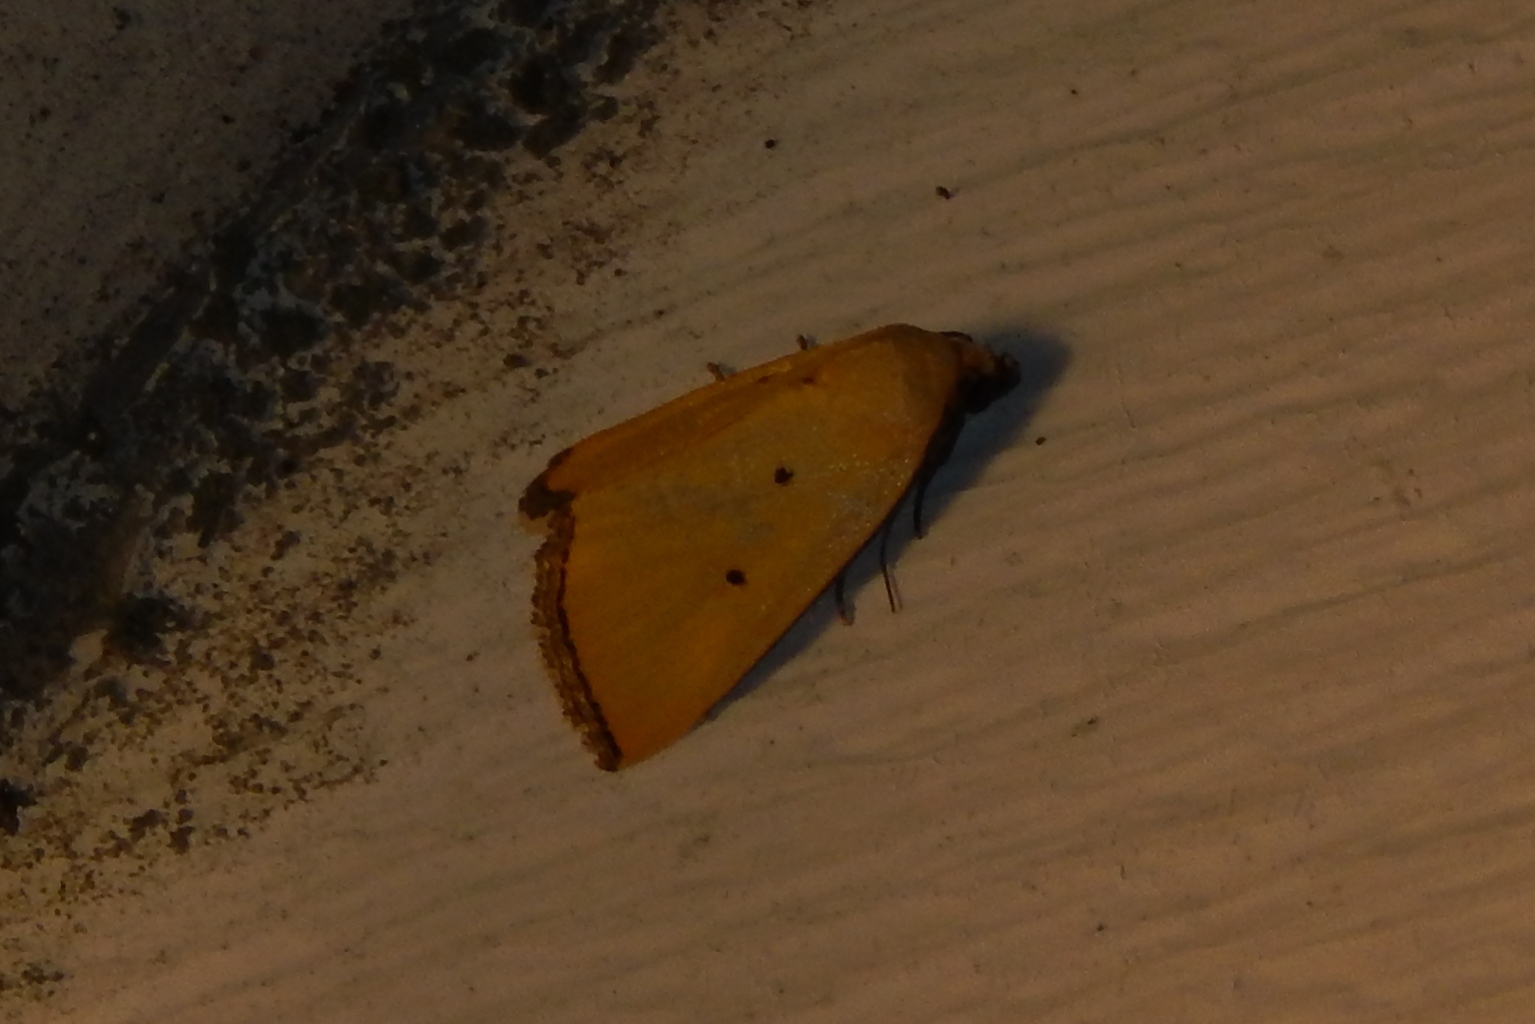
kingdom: Animalia
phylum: Arthropoda
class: Insecta
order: Lepidoptera
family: Noctuidae
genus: Marimatha
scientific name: Marimatha nigrofimbria
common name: Black-bordered lemon moth
